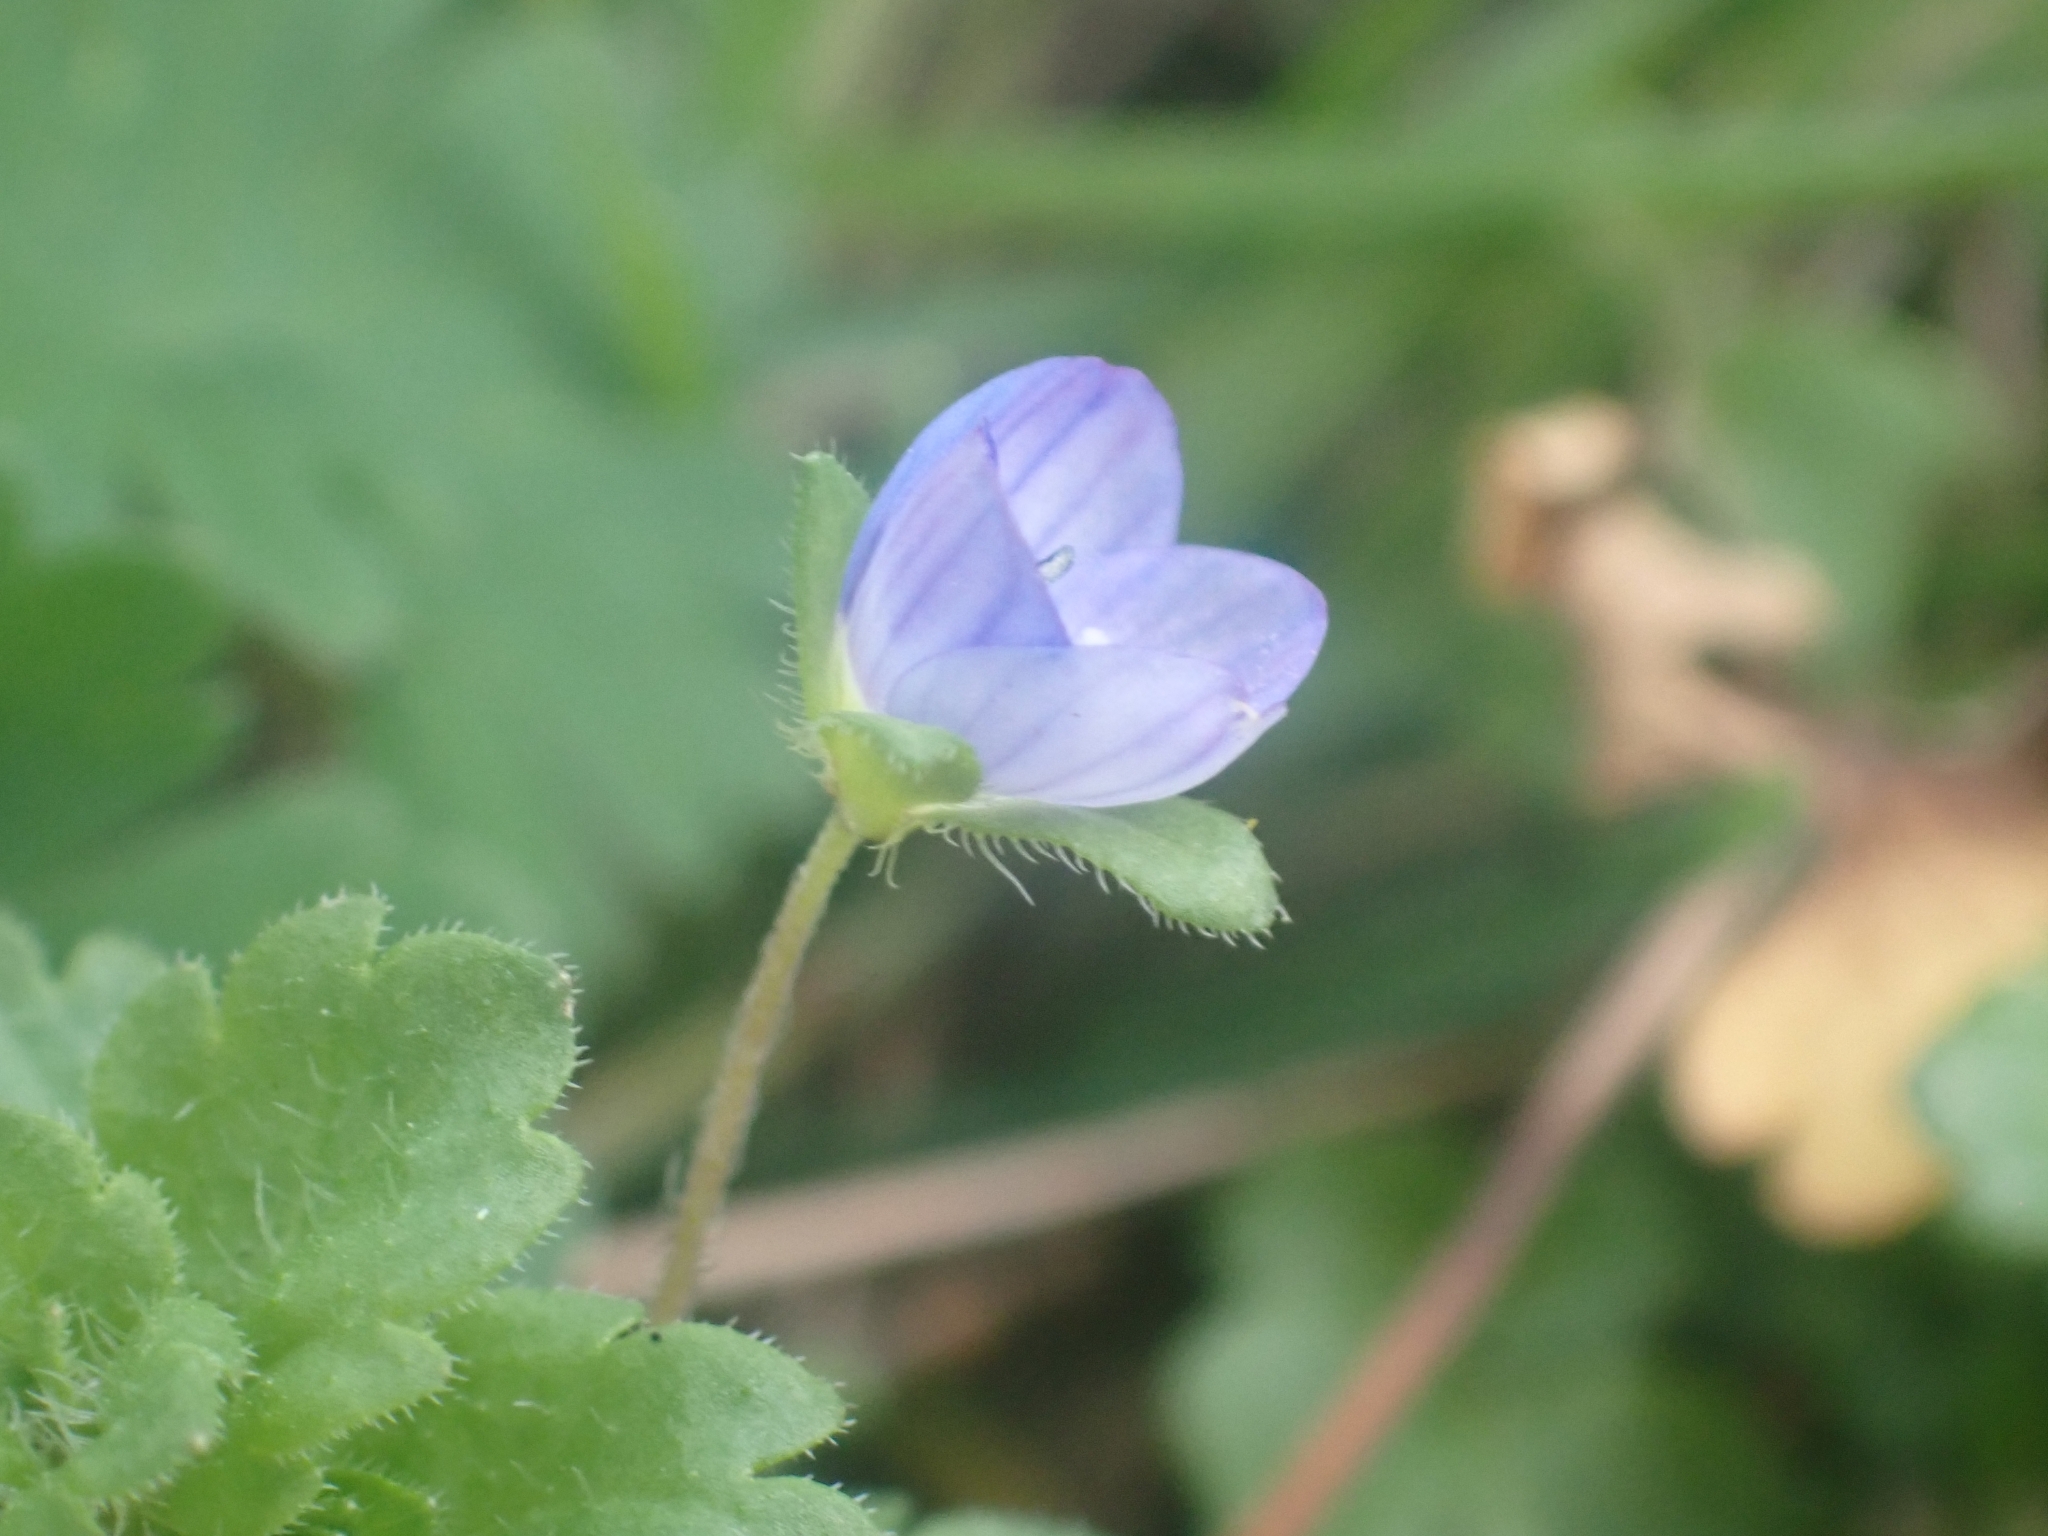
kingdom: Plantae
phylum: Tracheophyta
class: Magnoliopsida
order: Lamiales
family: Plantaginaceae
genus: Veronica
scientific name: Veronica persica
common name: Common field-speedwell
